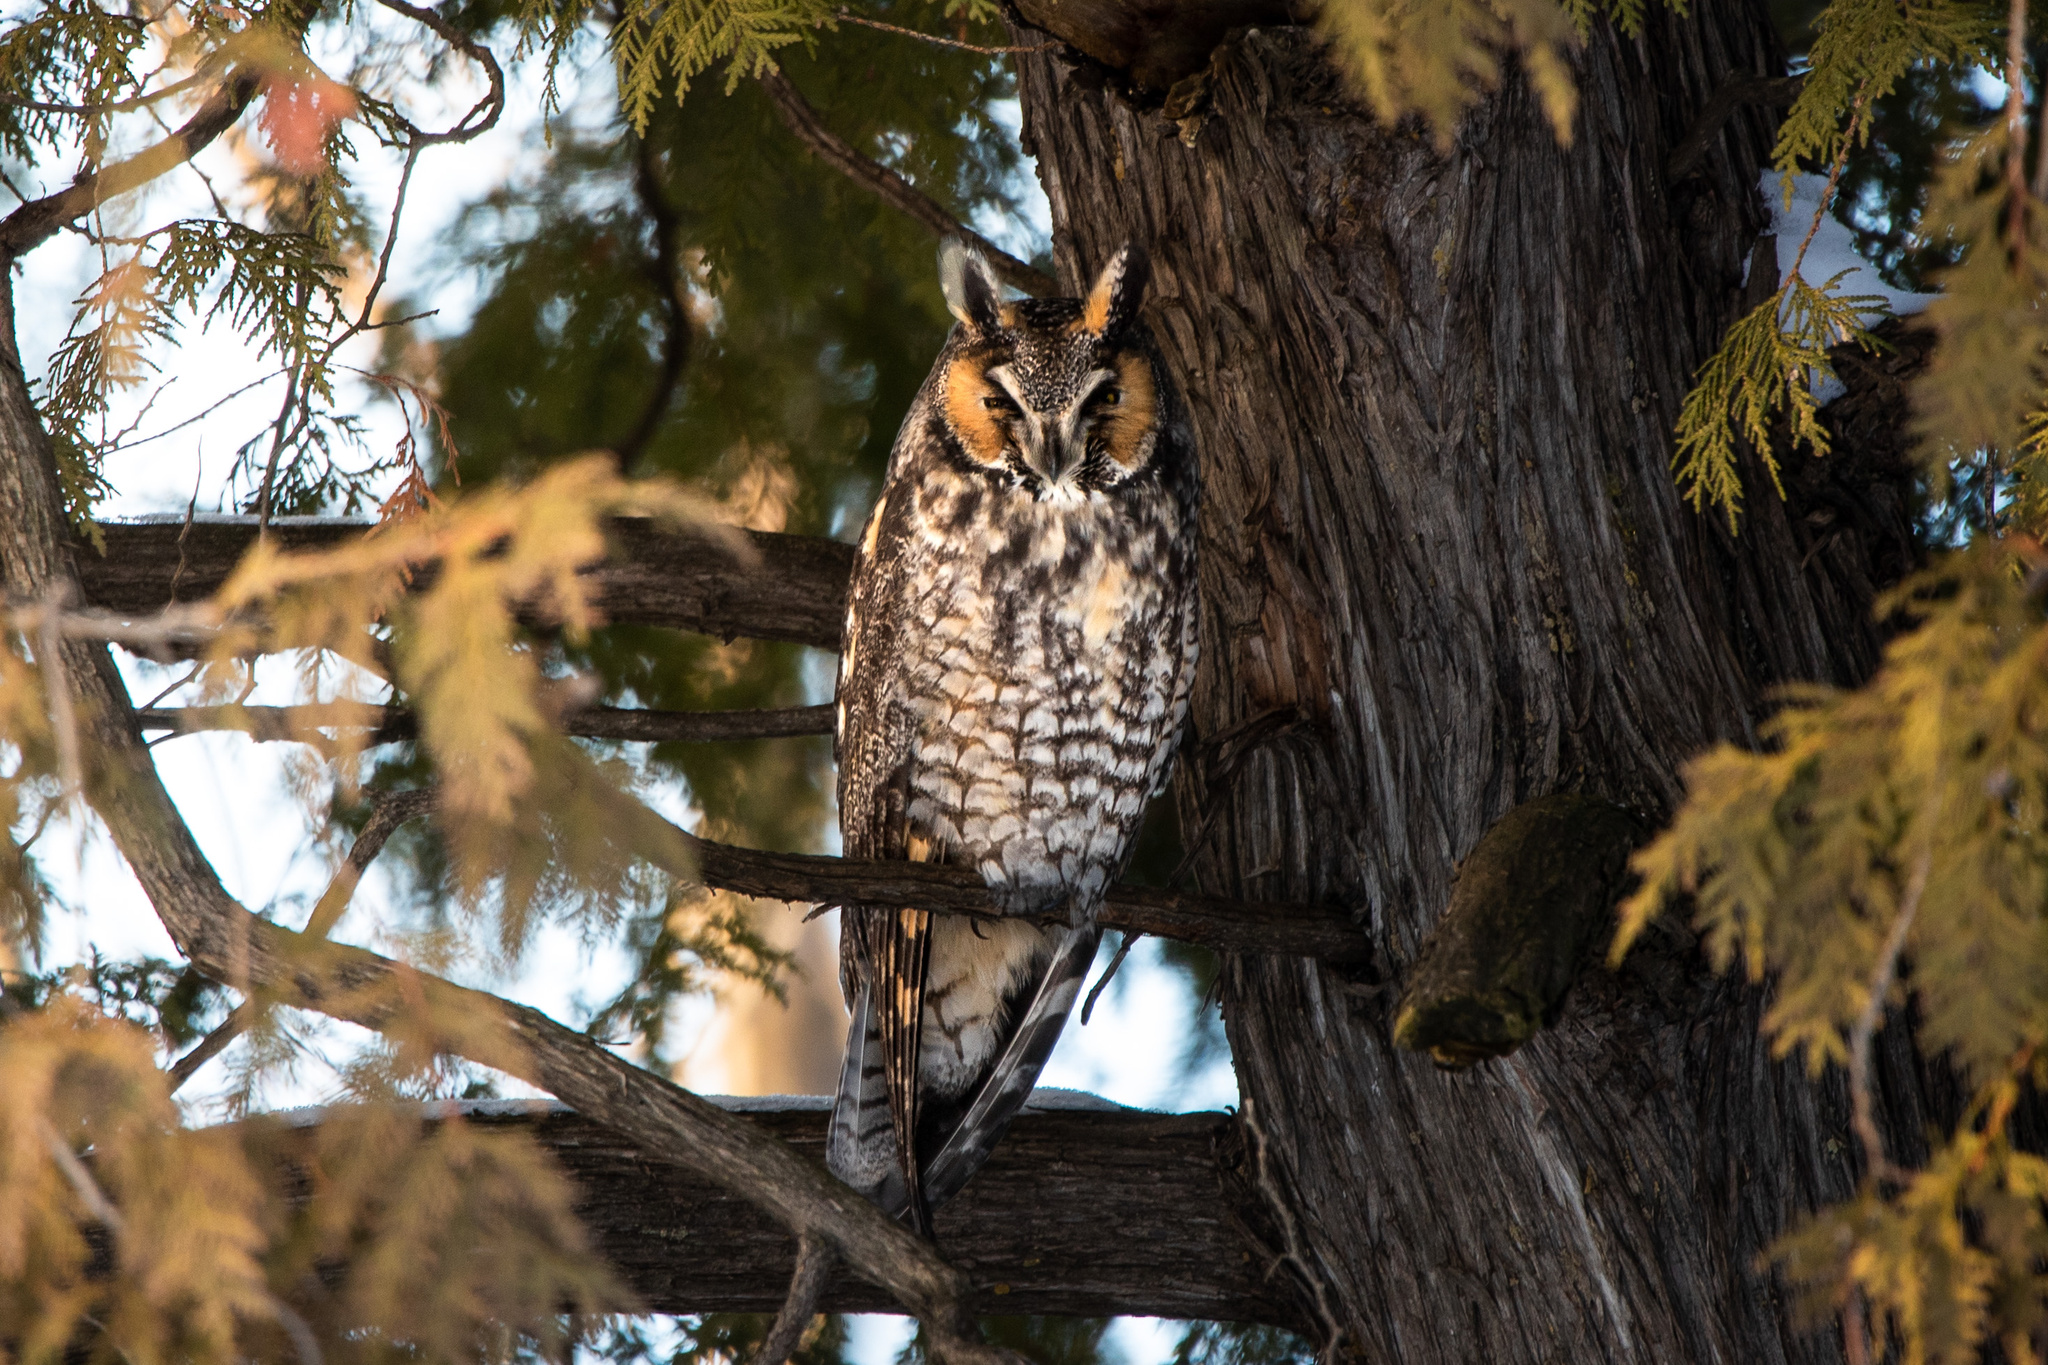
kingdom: Animalia
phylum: Chordata
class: Aves
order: Strigiformes
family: Strigidae
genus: Asio
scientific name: Asio otus
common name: Long-eared owl
